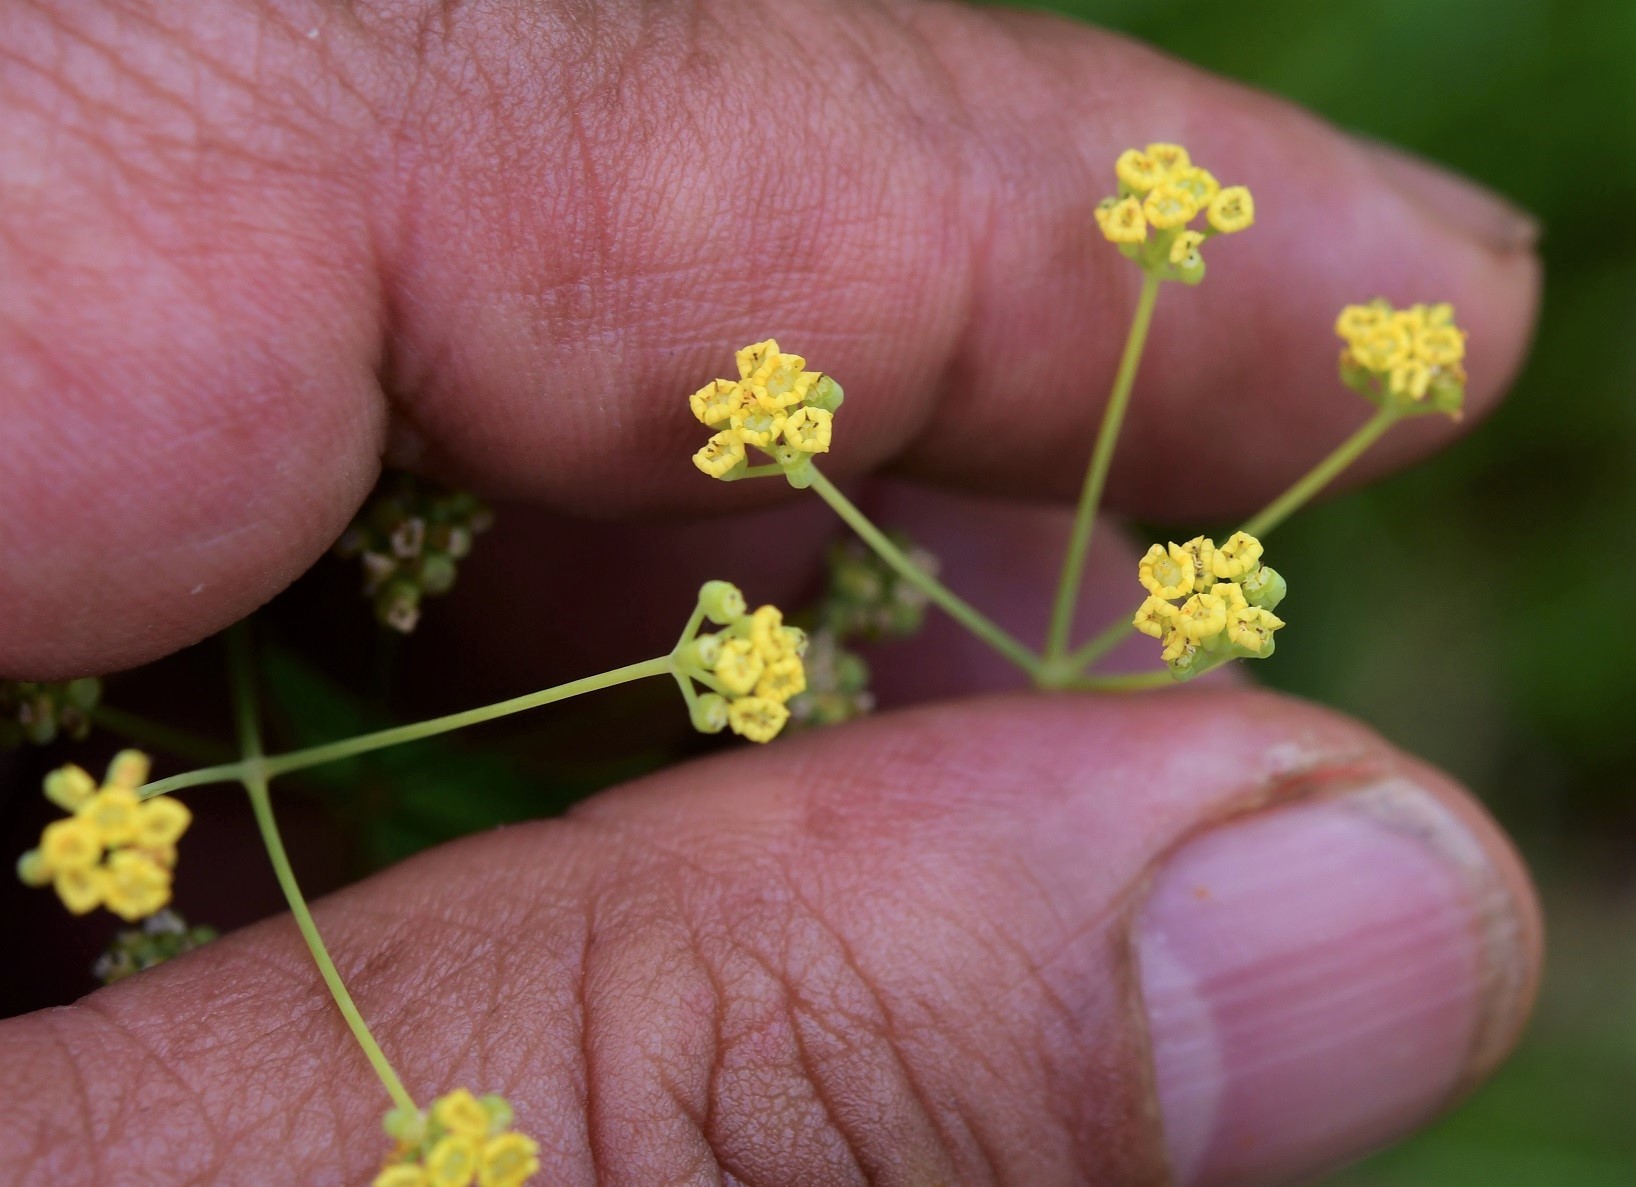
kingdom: Plantae
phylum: Tracheophyta
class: Magnoliopsida
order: Apiales
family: Apiaceae
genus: Donnellsmithia
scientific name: Donnellsmithia juncea
